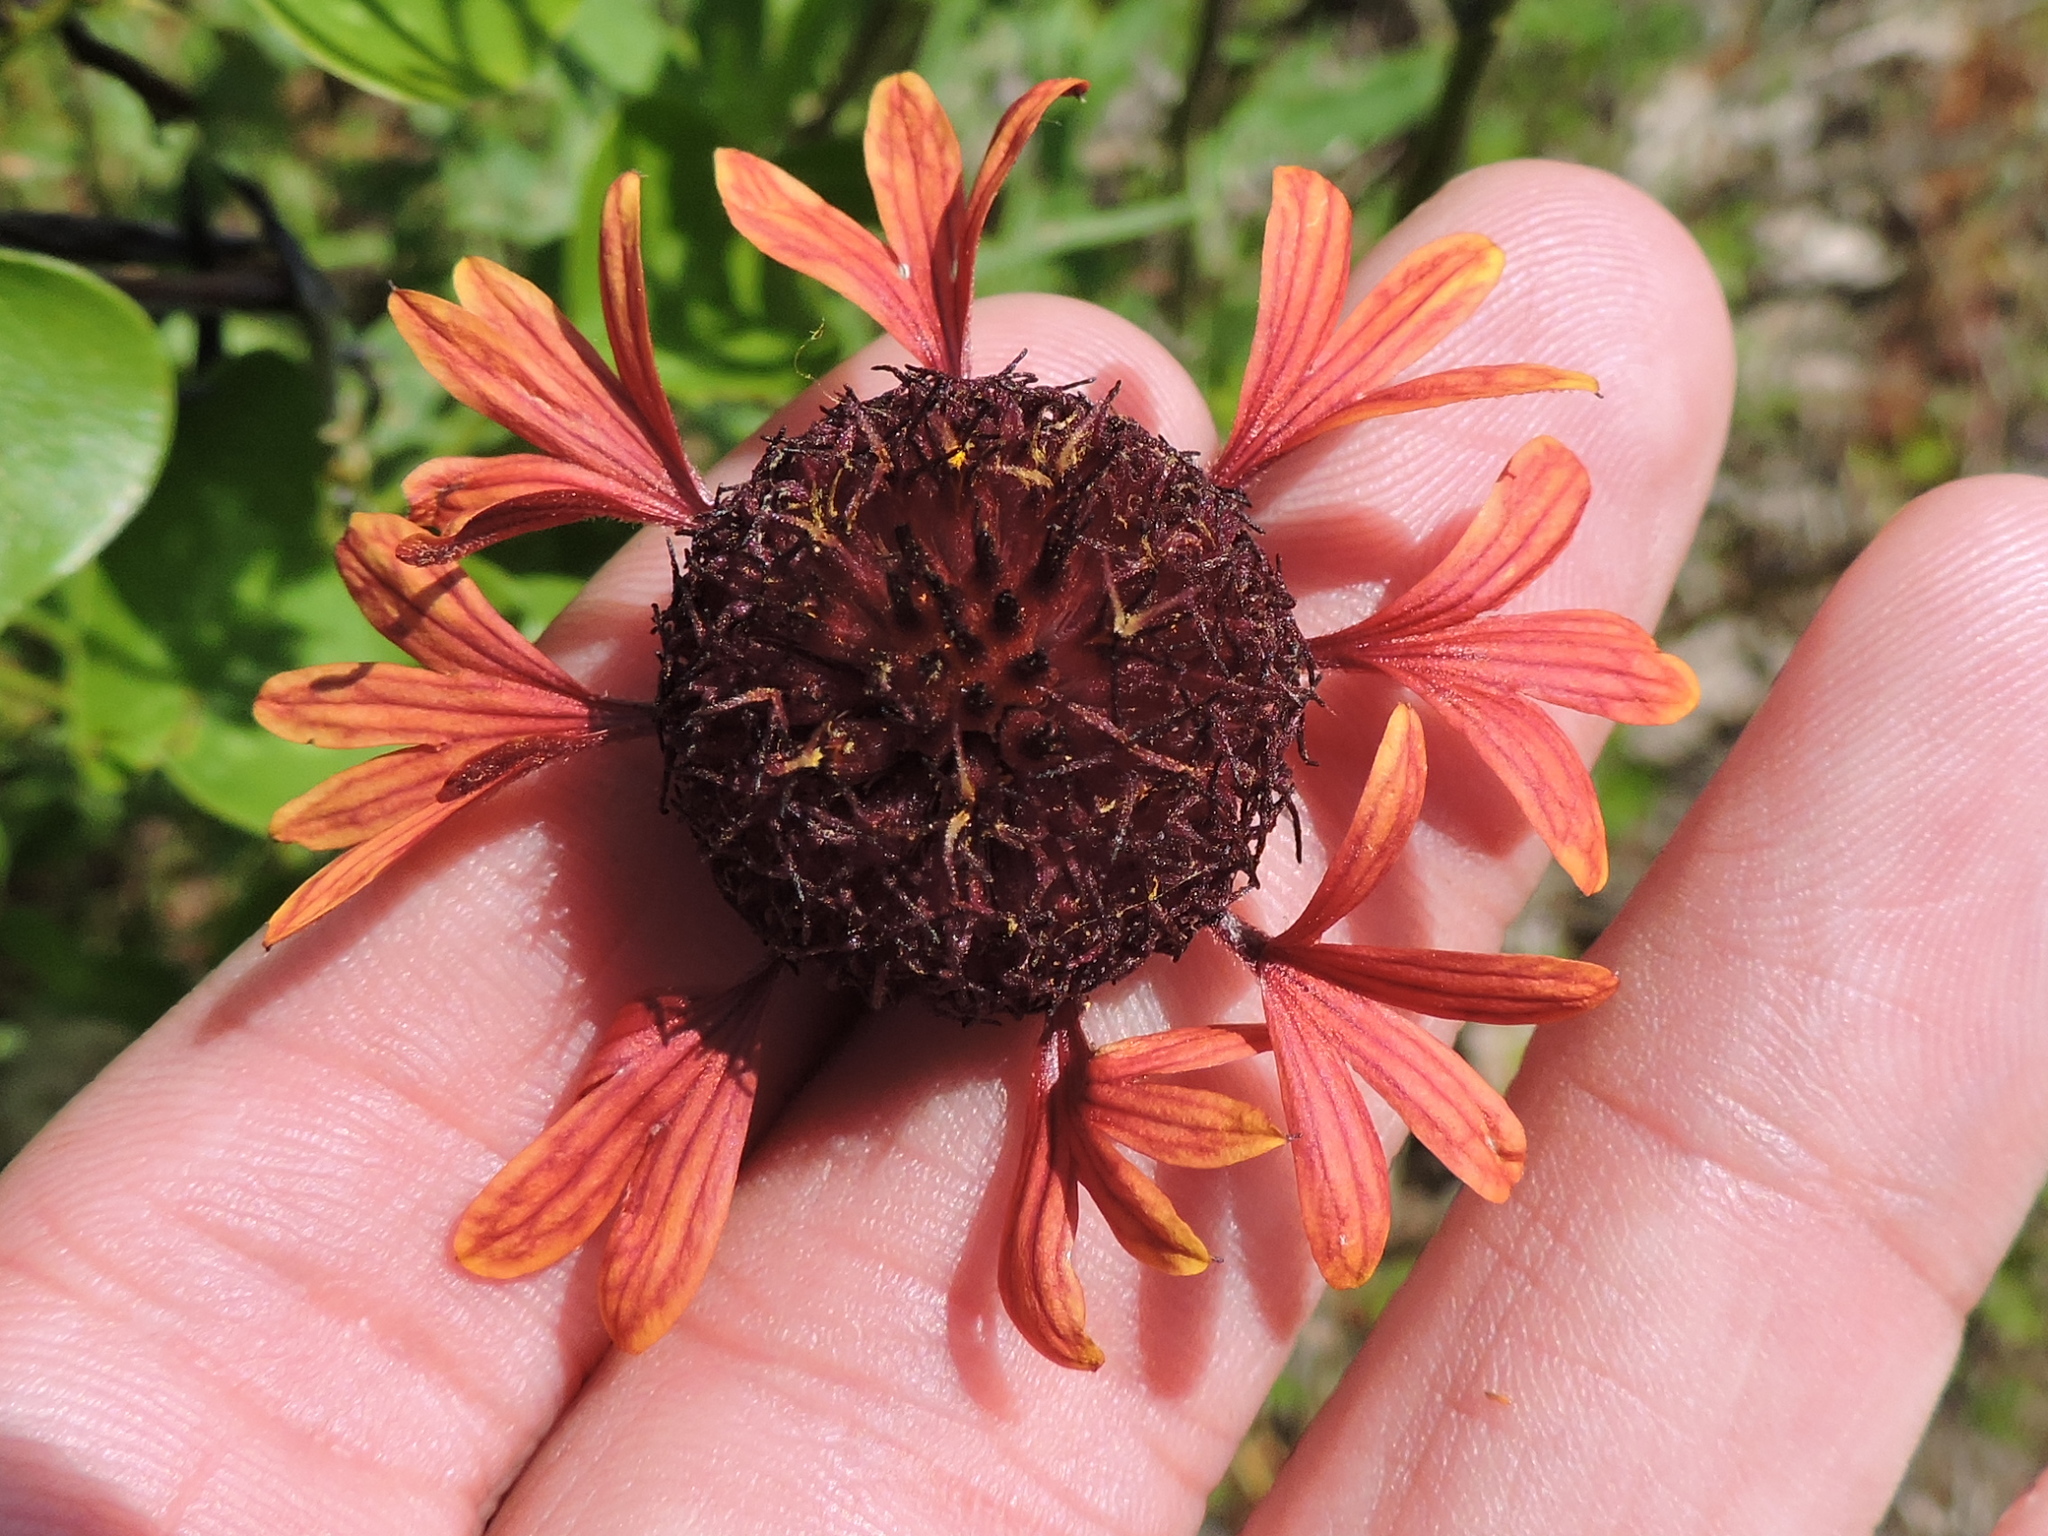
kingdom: Plantae
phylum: Tracheophyta
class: Magnoliopsida
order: Asterales
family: Asteraceae
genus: Gaillardia
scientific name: Gaillardia aestivalis
